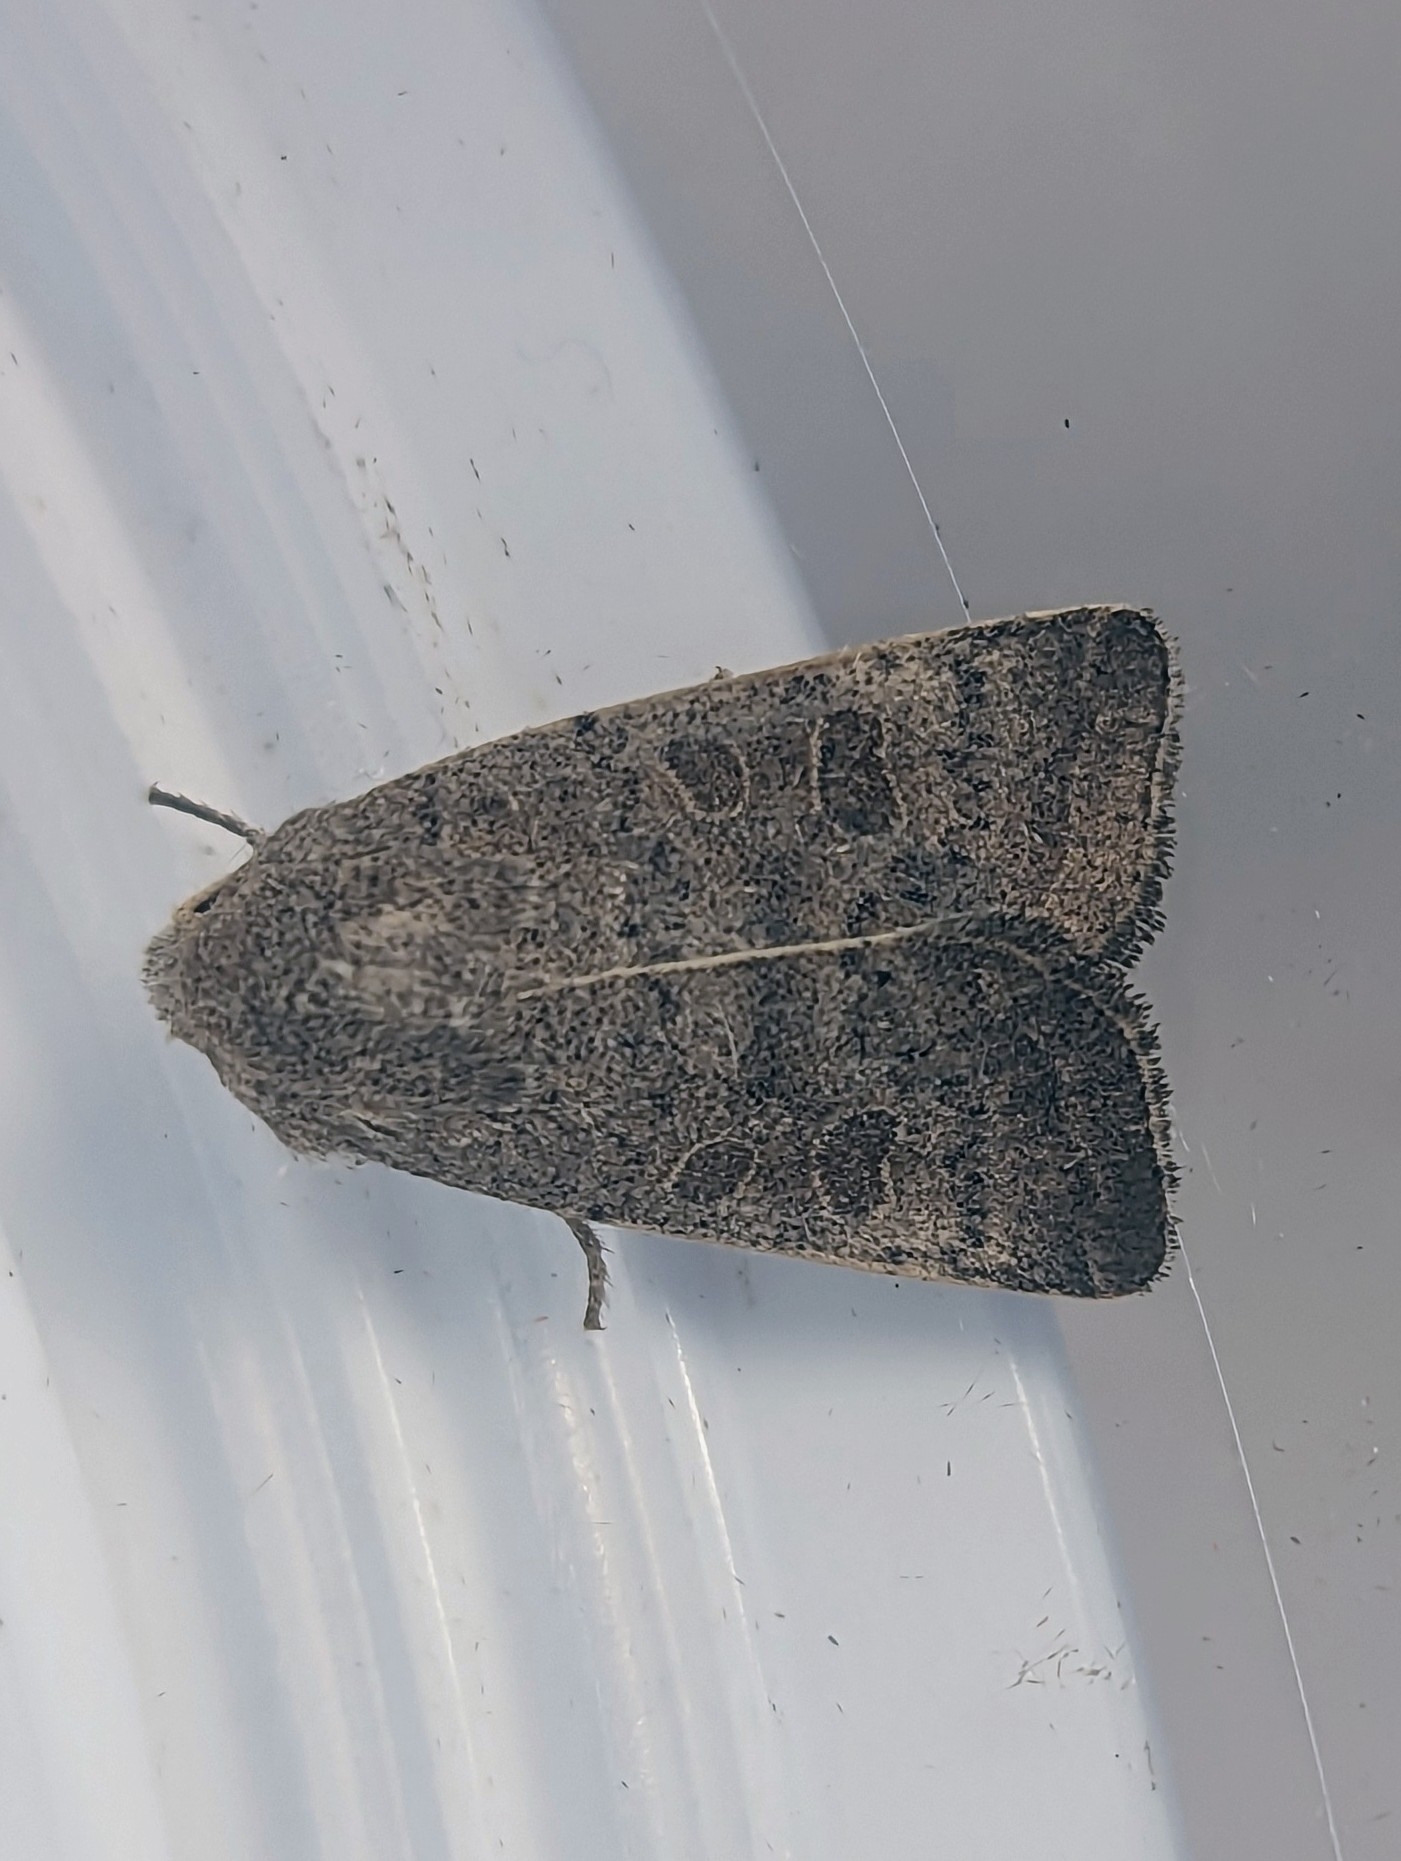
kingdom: Animalia
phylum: Arthropoda
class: Insecta
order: Lepidoptera
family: Noctuidae
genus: Hoplodrina
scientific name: Hoplodrina ambigua
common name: Vine's rustic
